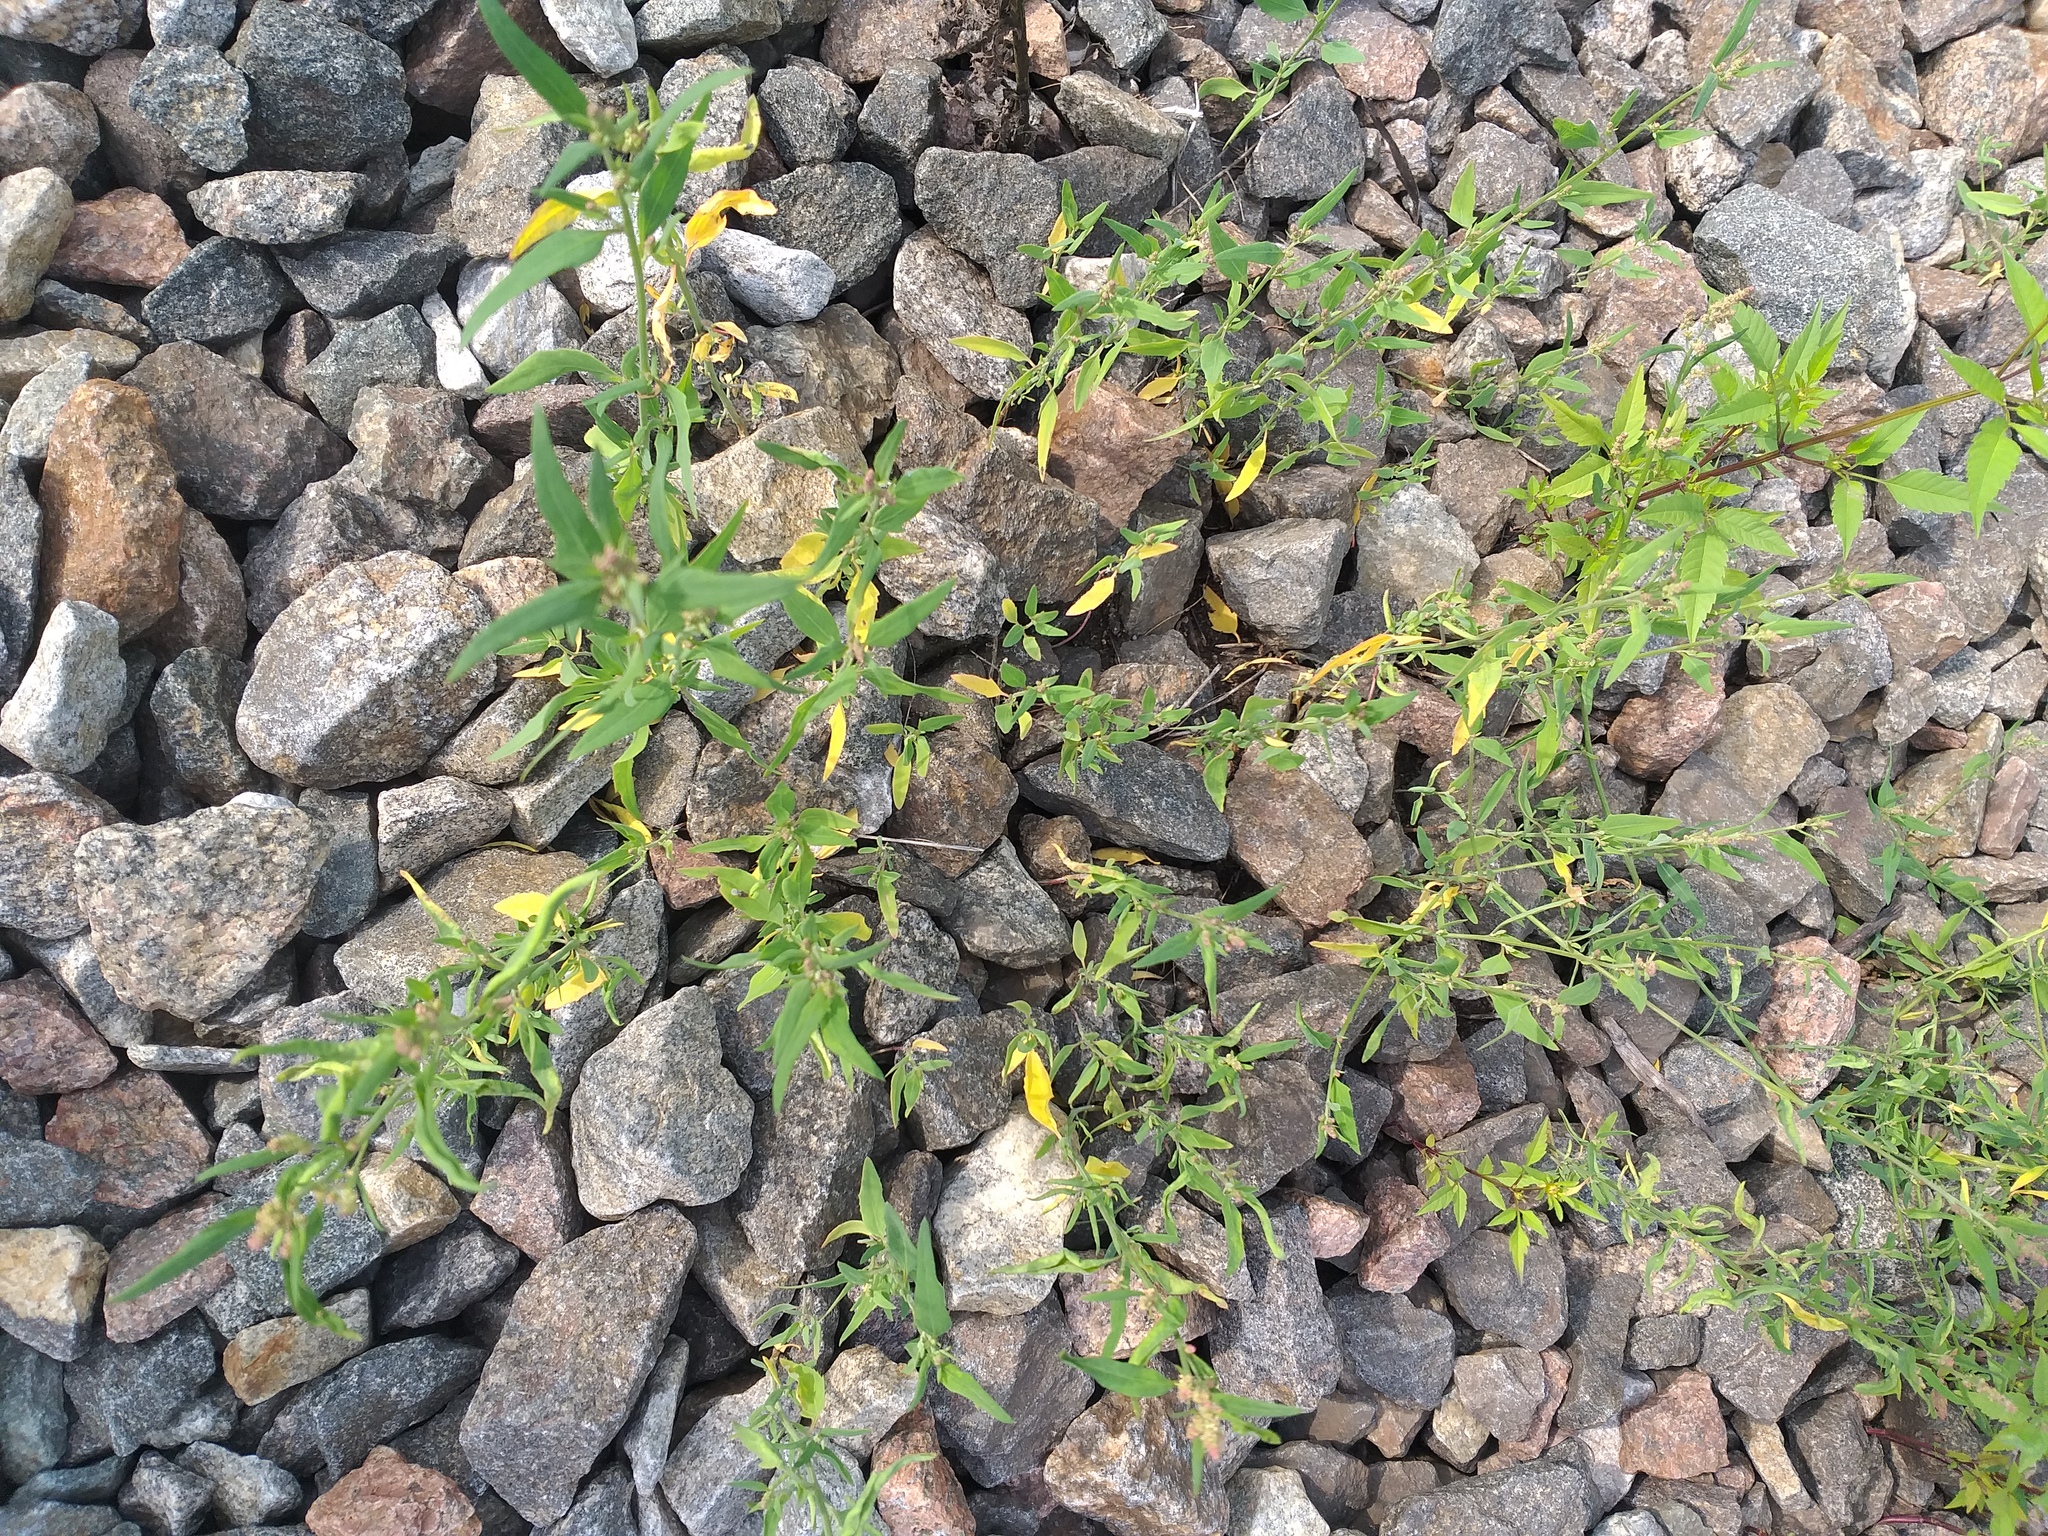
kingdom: Plantae
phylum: Tracheophyta
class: Magnoliopsida
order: Caryophyllales
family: Amaranthaceae
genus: Atriplex
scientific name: Atriplex patula
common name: Common orache
